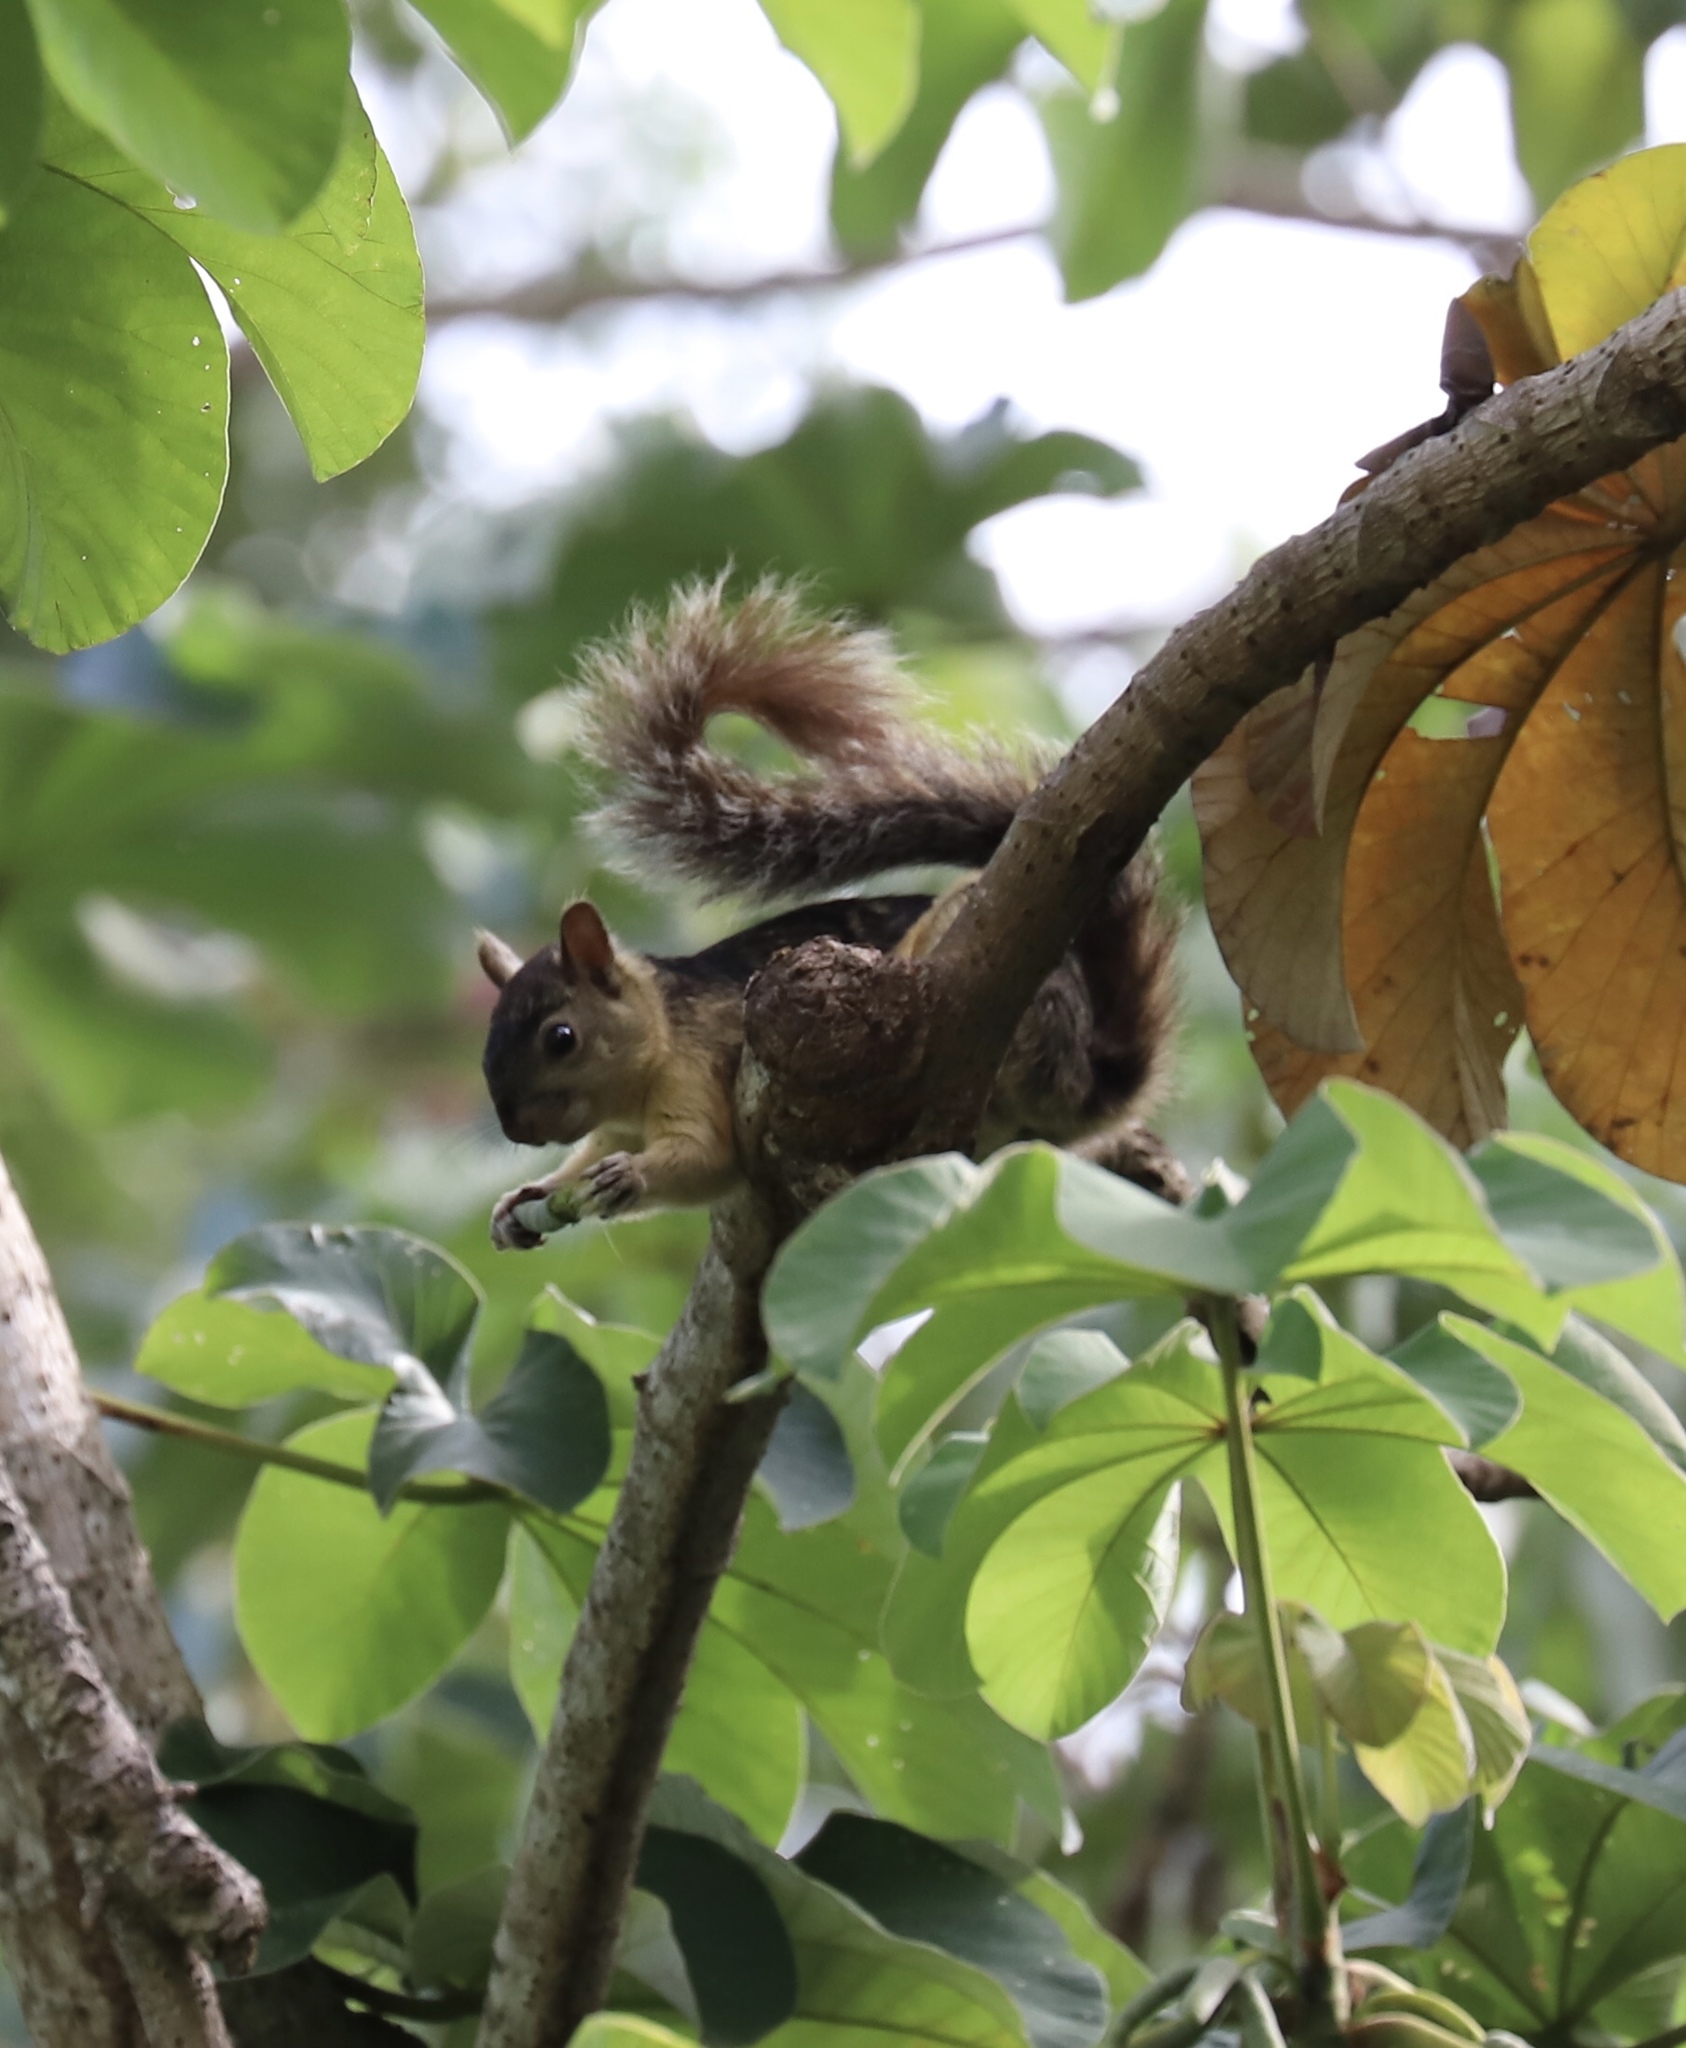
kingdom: Animalia
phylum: Chordata
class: Mammalia
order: Rodentia
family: Sciuridae
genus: Sciurus
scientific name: Sciurus variegatoides
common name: Variegated squirrel
